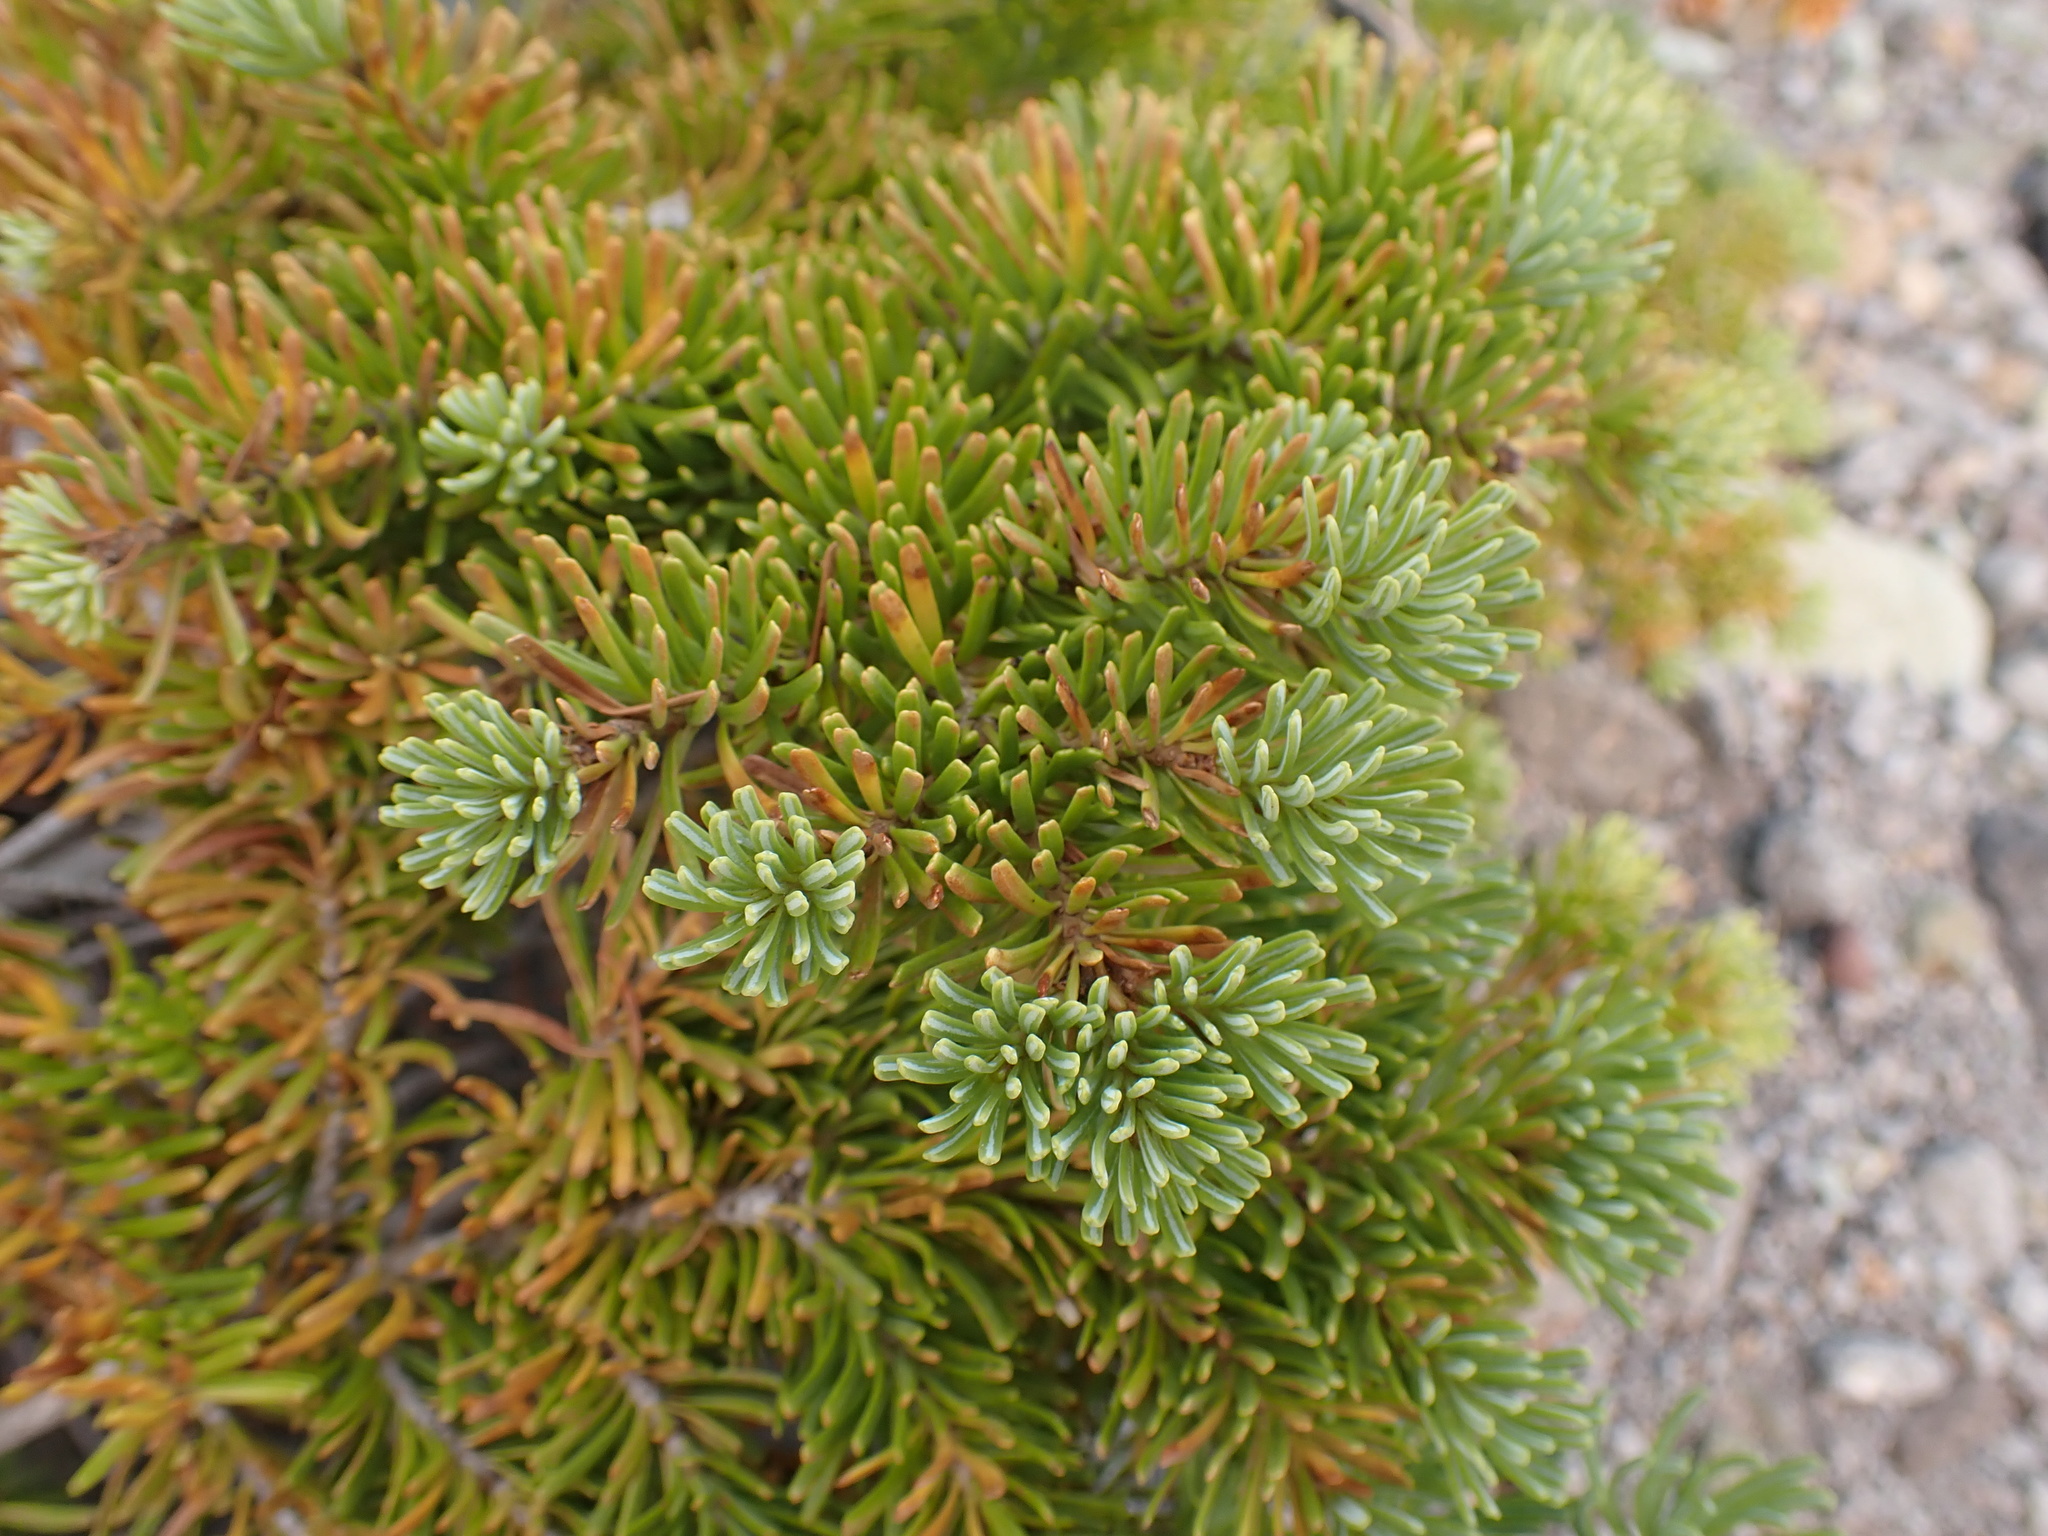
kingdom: Plantae
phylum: Tracheophyta
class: Pinopsida
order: Pinales
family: Pinaceae
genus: Abies
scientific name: Abies lasiocarpa
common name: Subalpine fir
